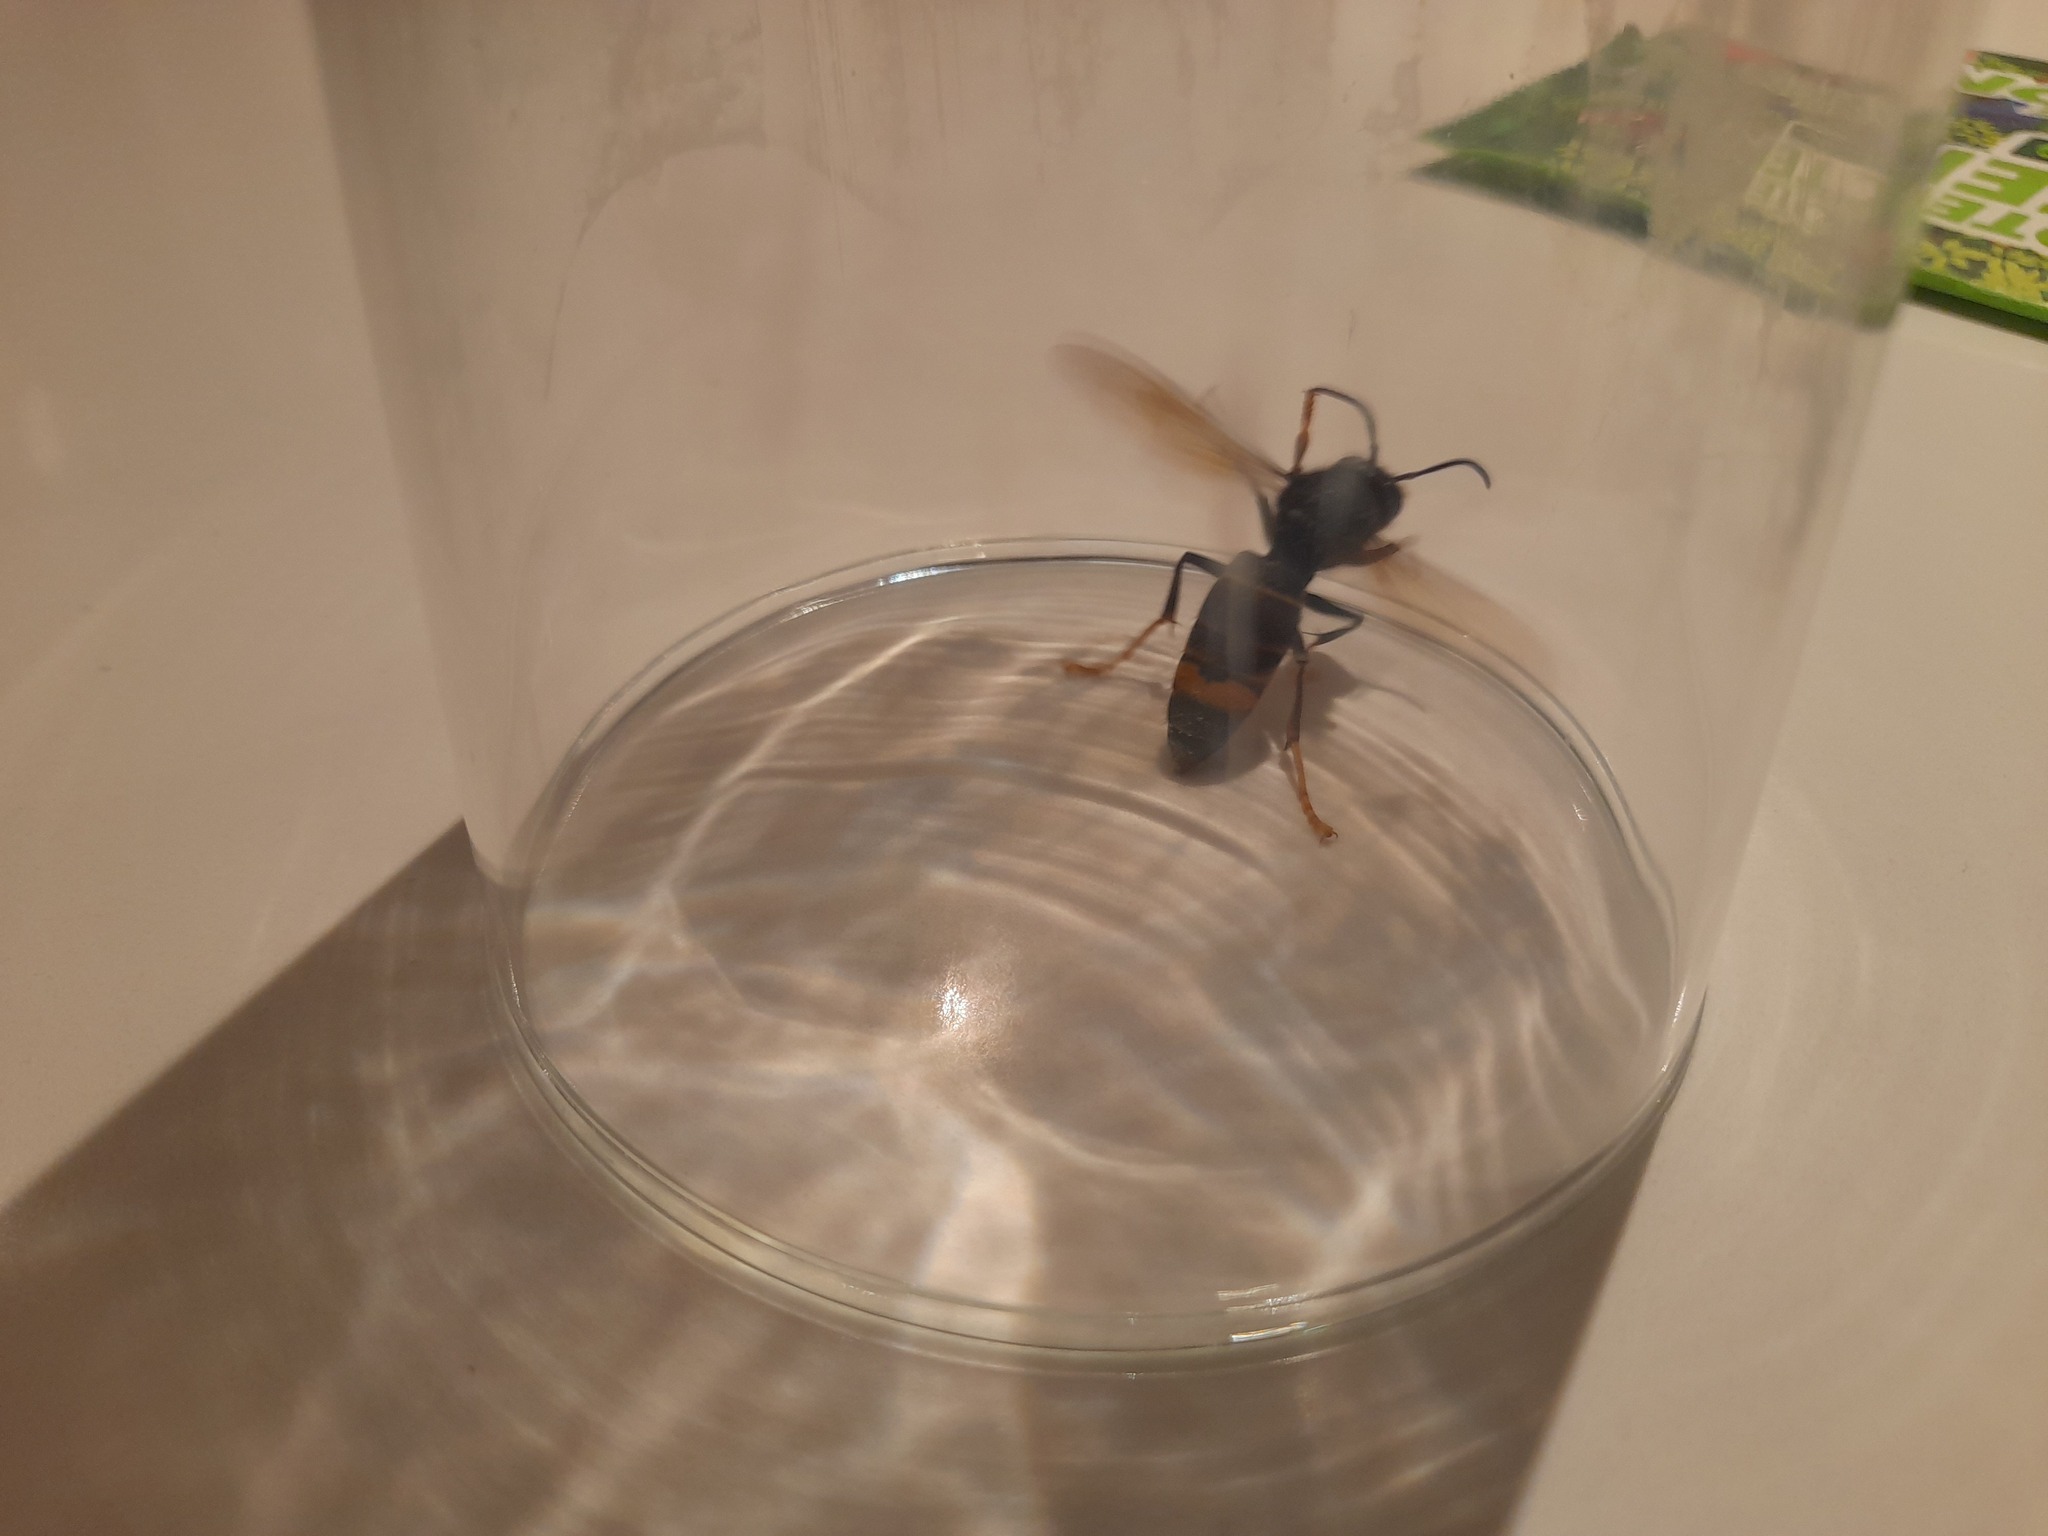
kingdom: Animalia
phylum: Arthropoda
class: Insecta
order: Hymenoptera
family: Vespidae
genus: Vespa
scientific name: Vespa velutina
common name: Asian hornet
